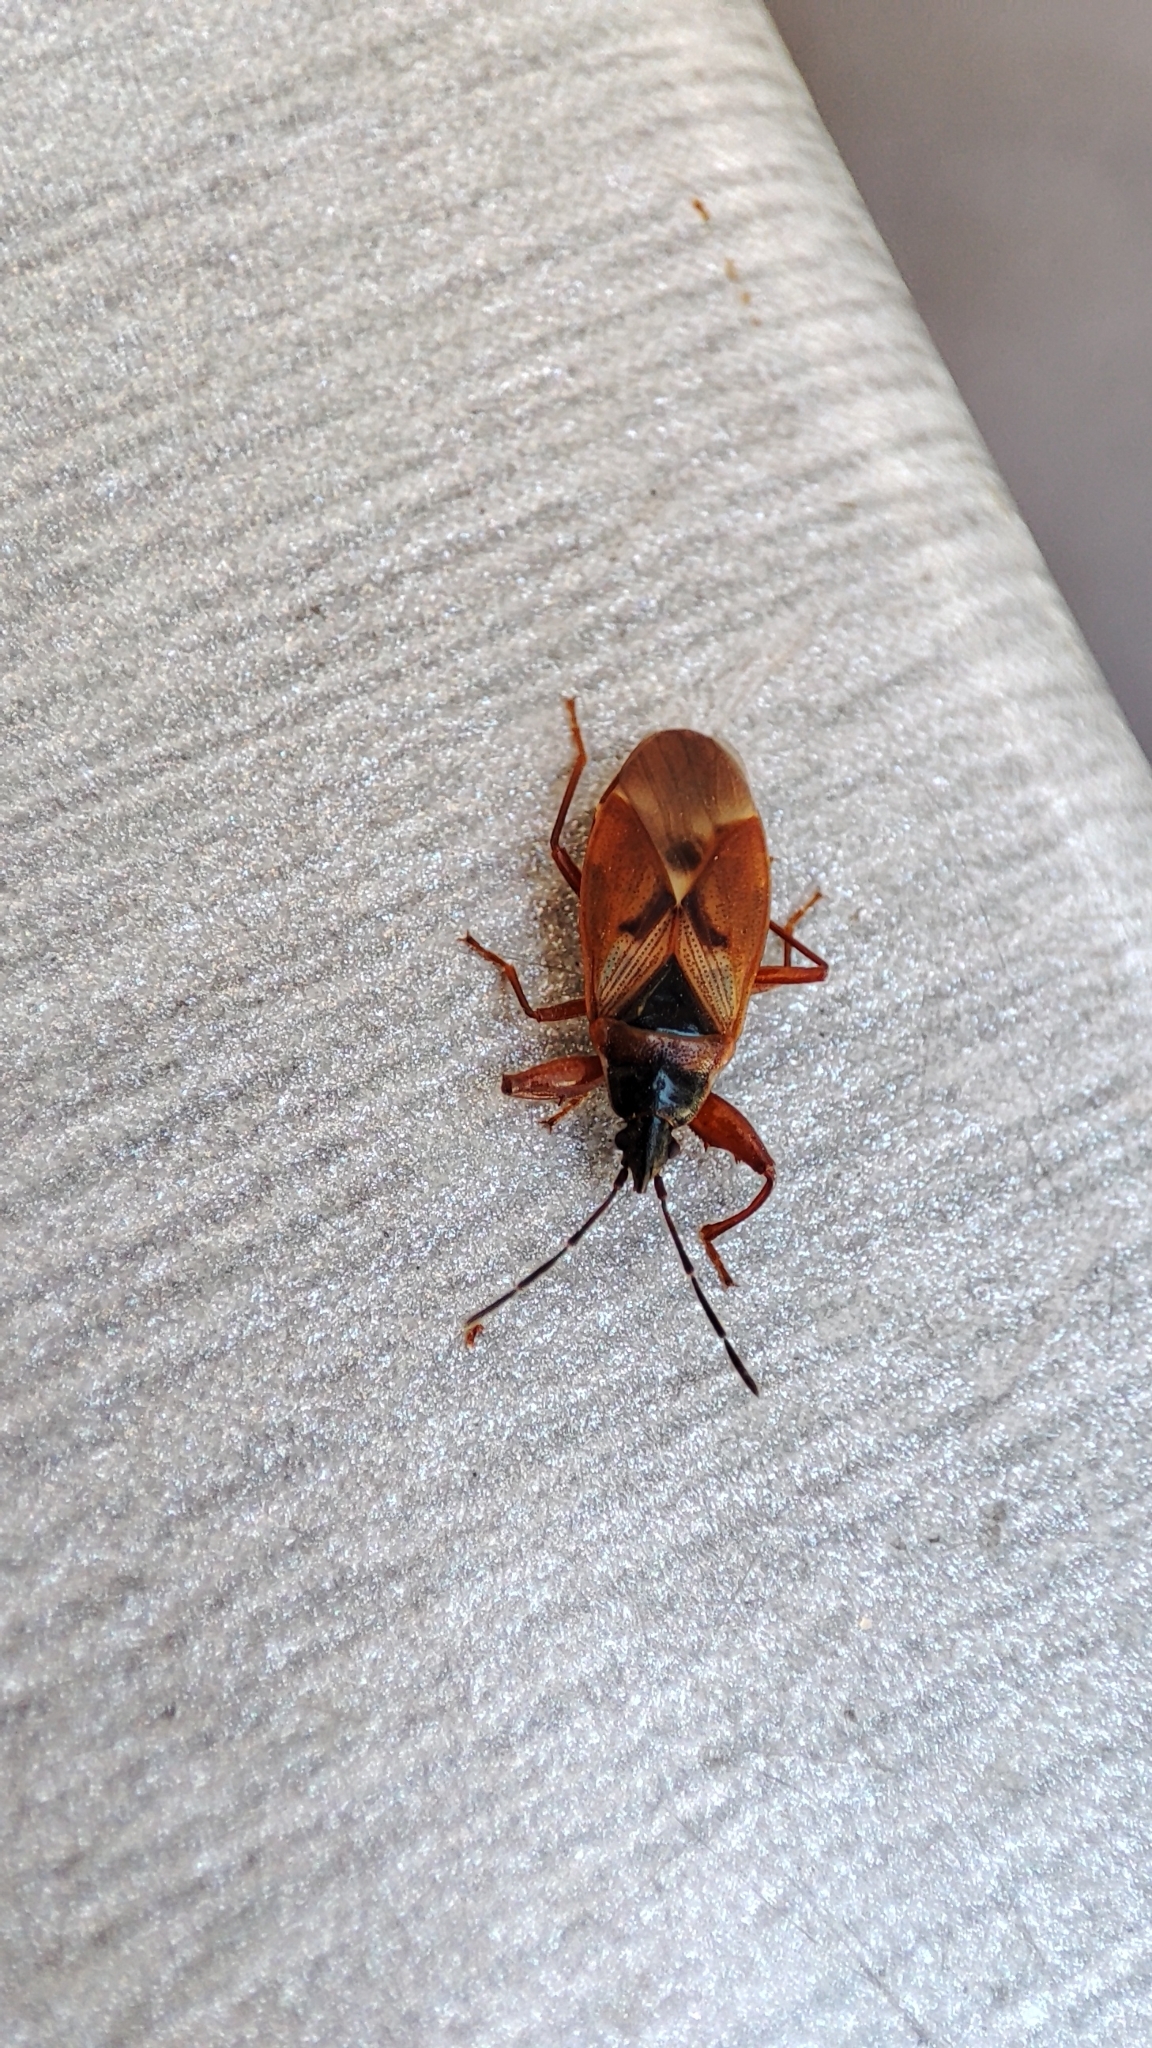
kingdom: Animalia
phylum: Arthropoda
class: Insecta
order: Hemiptera
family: Rhyparochromidae
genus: Gastrodes
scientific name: Gastrodes abietum
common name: Spruce cone bug
